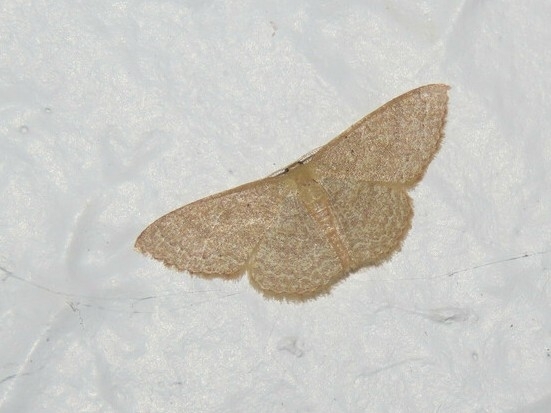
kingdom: Animalia
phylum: Arthropoda
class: Insecta
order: Lepidoptera
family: Geometridae
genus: Pleuroprucha
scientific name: Pleuroprucha insulsaria
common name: Common tan wave
